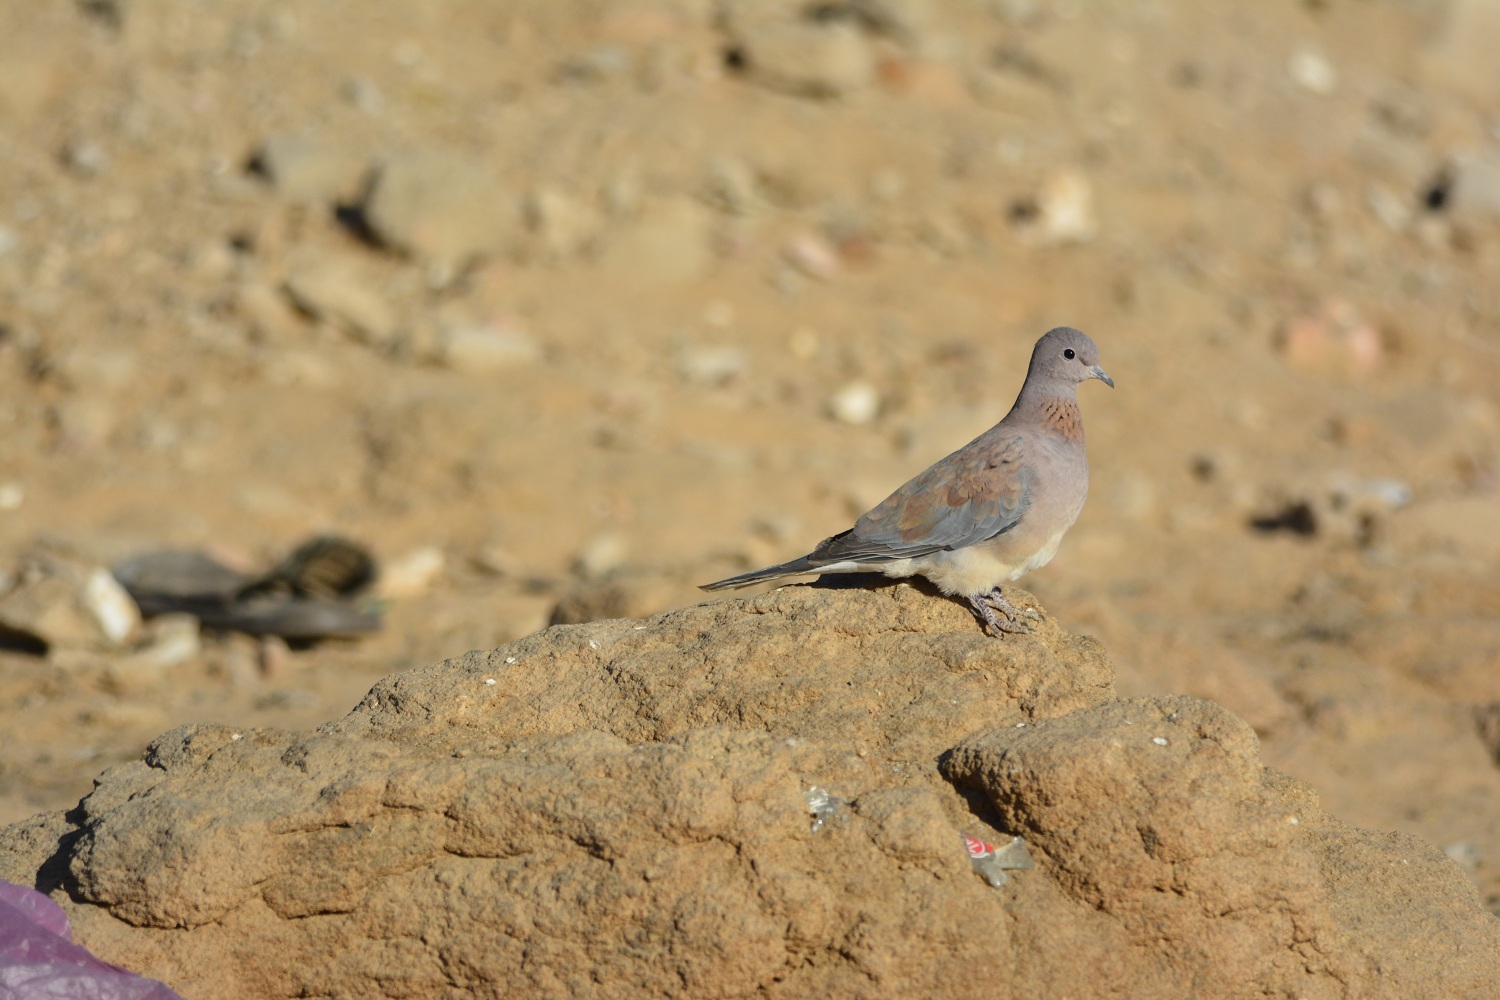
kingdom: Animalia
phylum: Chordata
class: Aves
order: Columbiformes
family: Columbidae
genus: Spilopelia
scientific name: Spilopelia senegalensis
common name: Laughing dove
